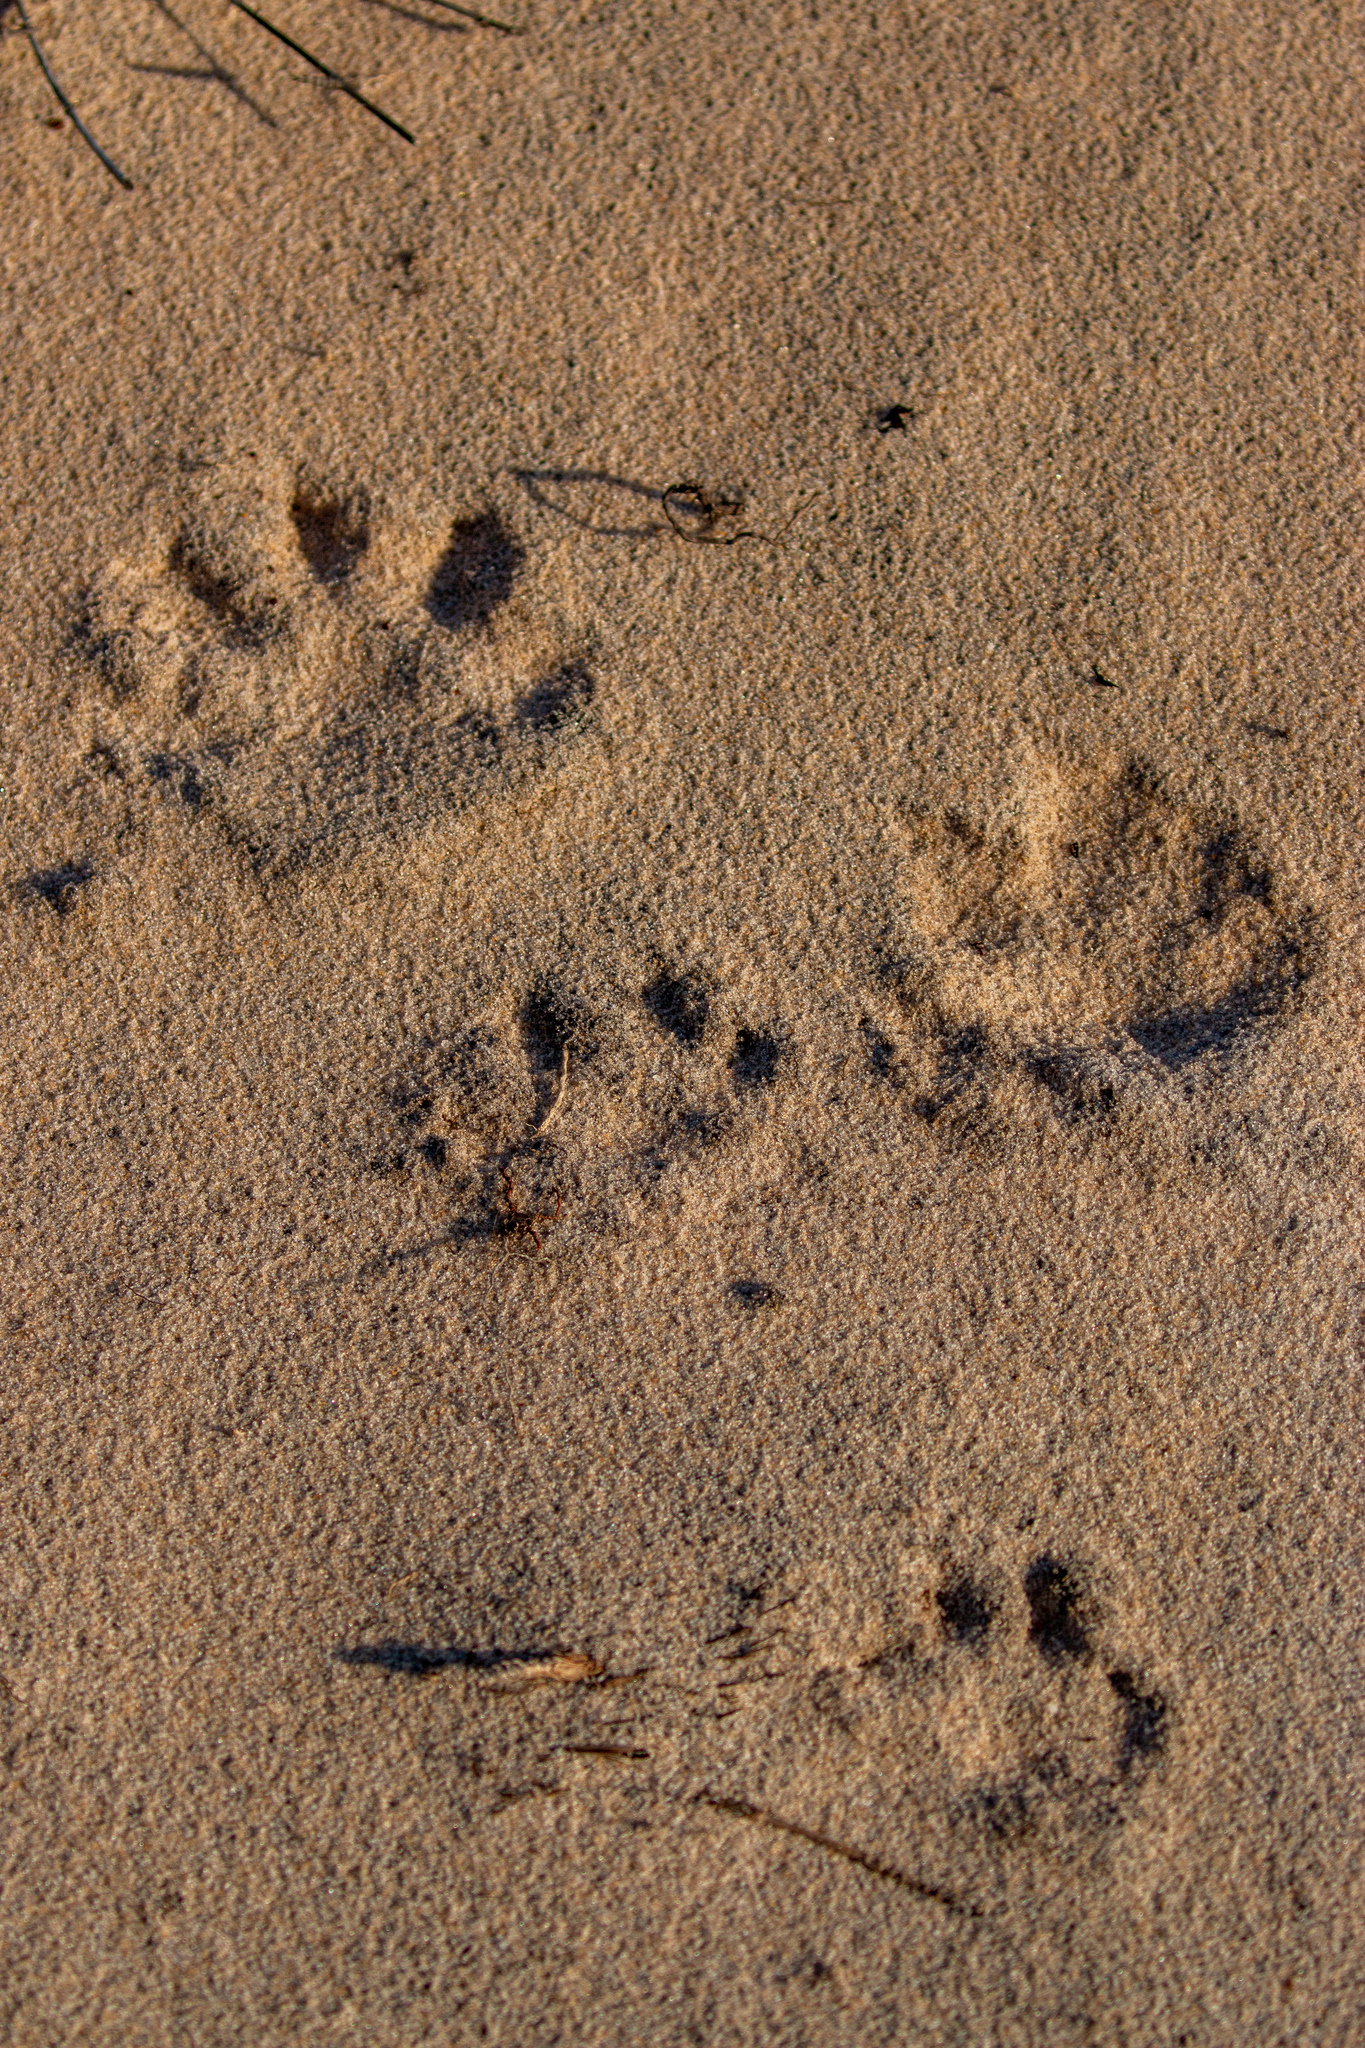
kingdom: Animalia
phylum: Chordata
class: Mammalia
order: Carnivora
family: Procyonidae
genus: Procyon
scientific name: Procyon cancrivorus
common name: Crab-eating raccoon
